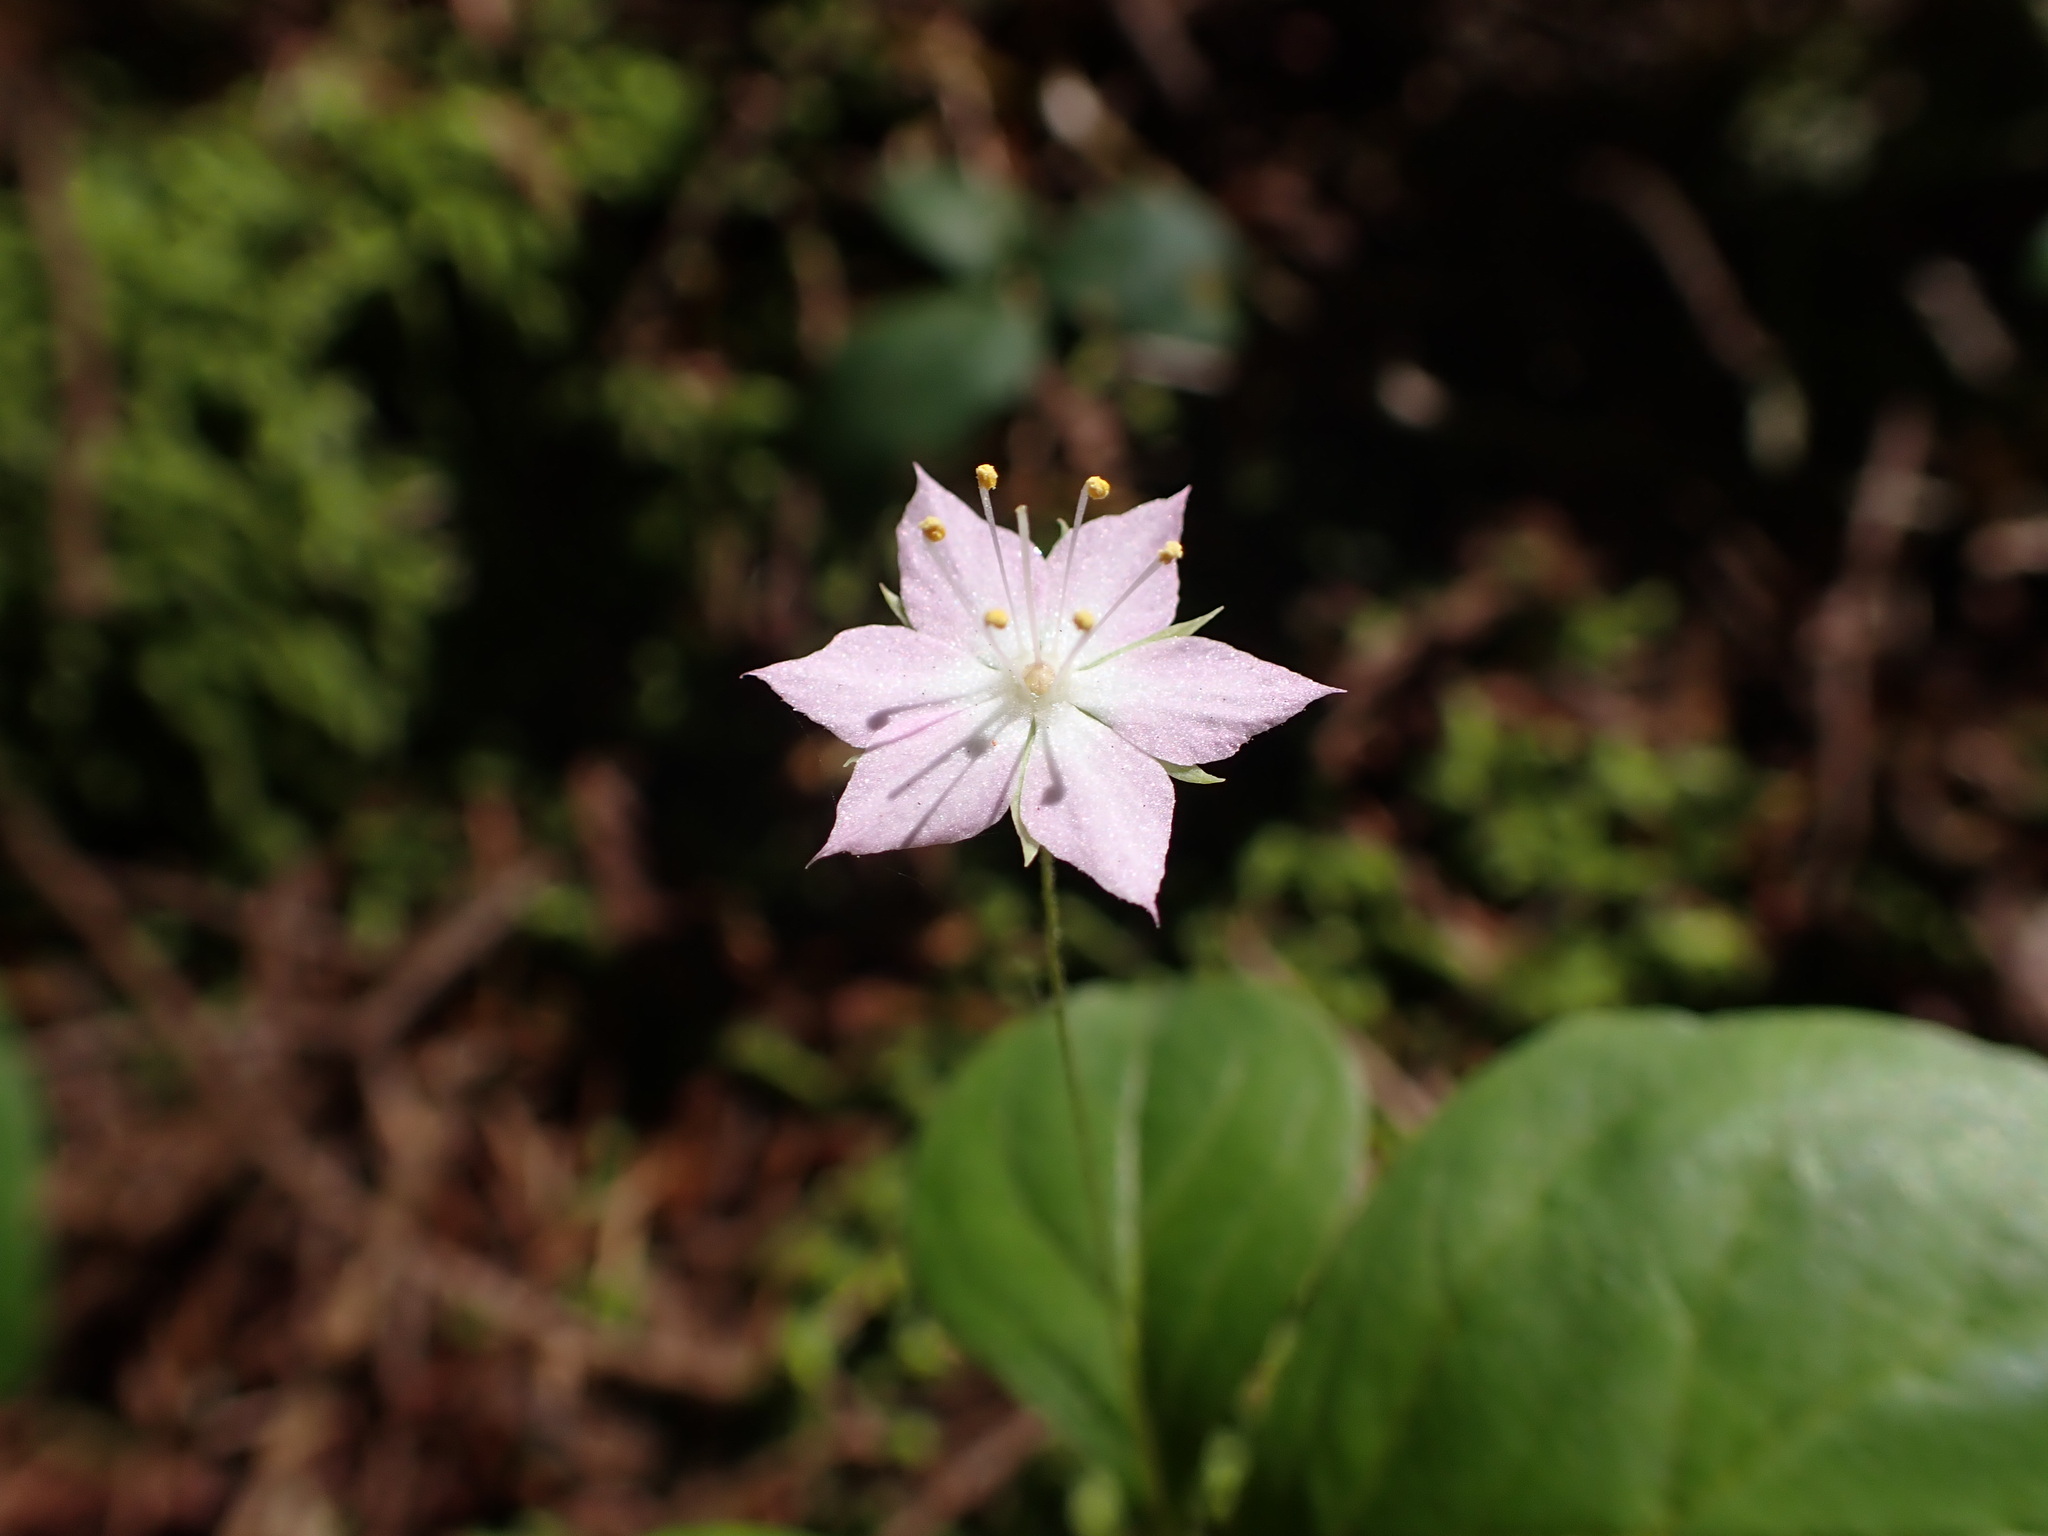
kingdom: Plantae
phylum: Tracheophyta
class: Magnoliopsida
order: Ericales
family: Primulaceae
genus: Lysimachia
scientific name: Lysimachia latifolia
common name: Pacific starflower
